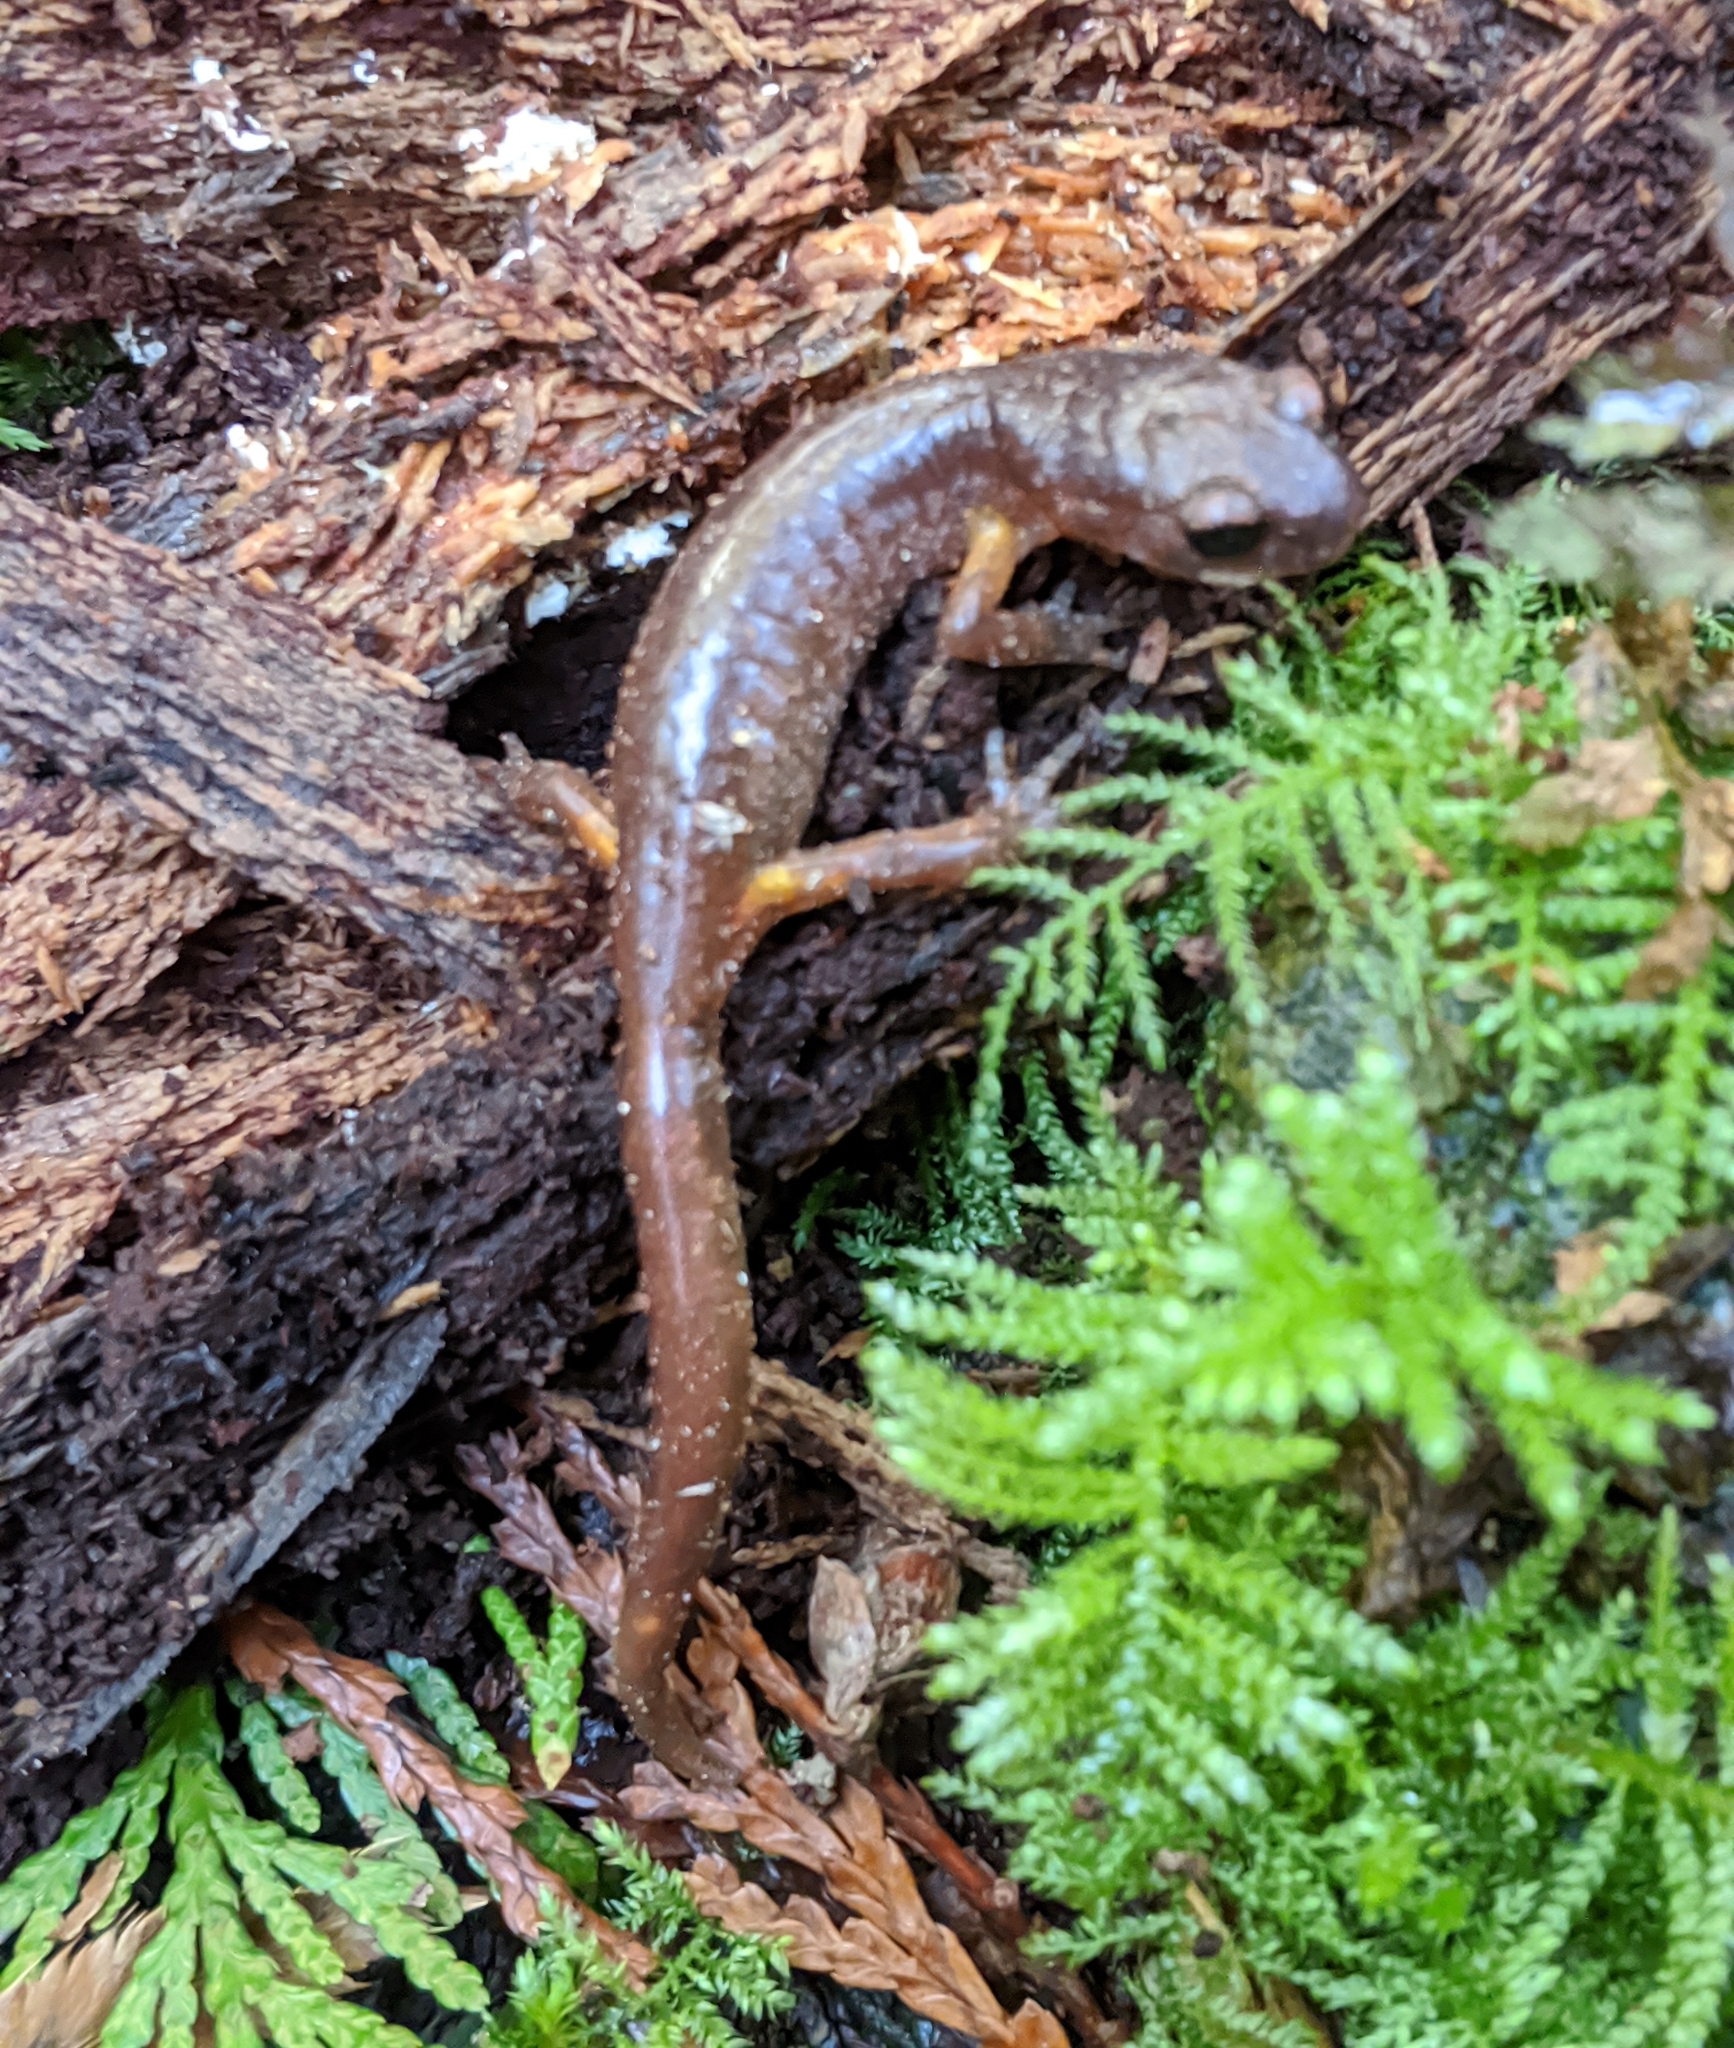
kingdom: Animalia
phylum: Chordata
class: Amphibia
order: Caudata
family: Plethodontidae
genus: Ensatina
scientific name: Ensatina eschscholtzii
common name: Ensatina
